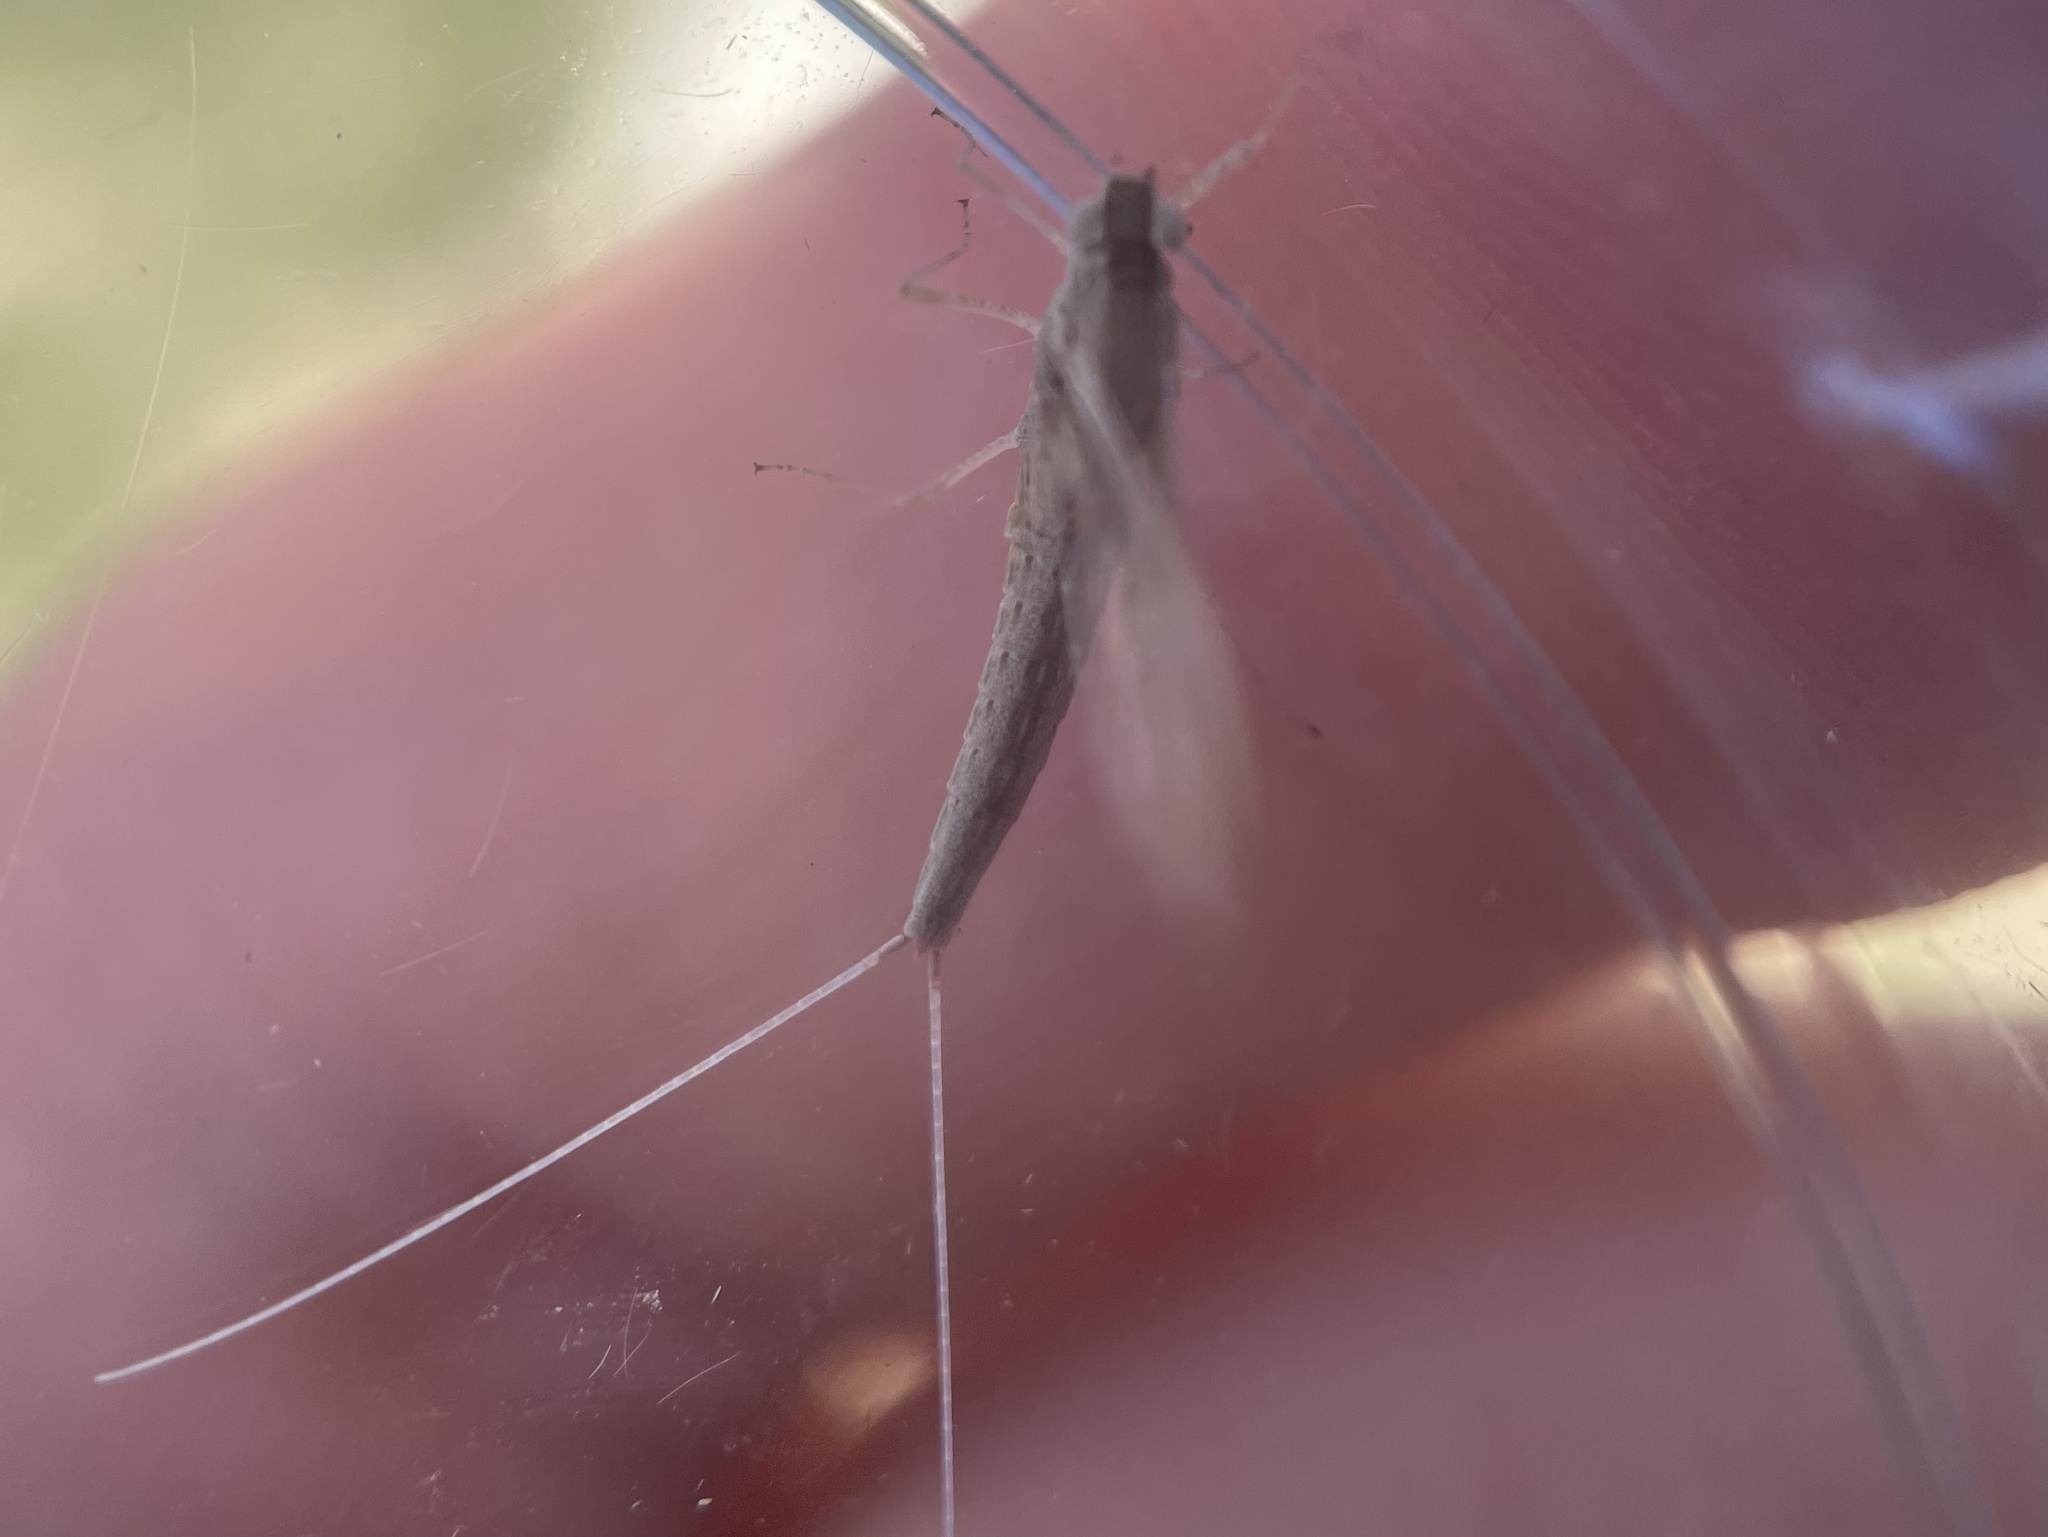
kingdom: Animalia
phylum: Arthropoda
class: Insecta
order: Ephemeroptera
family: Baetidae
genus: Callibaetis
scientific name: Callibaetis pictus
